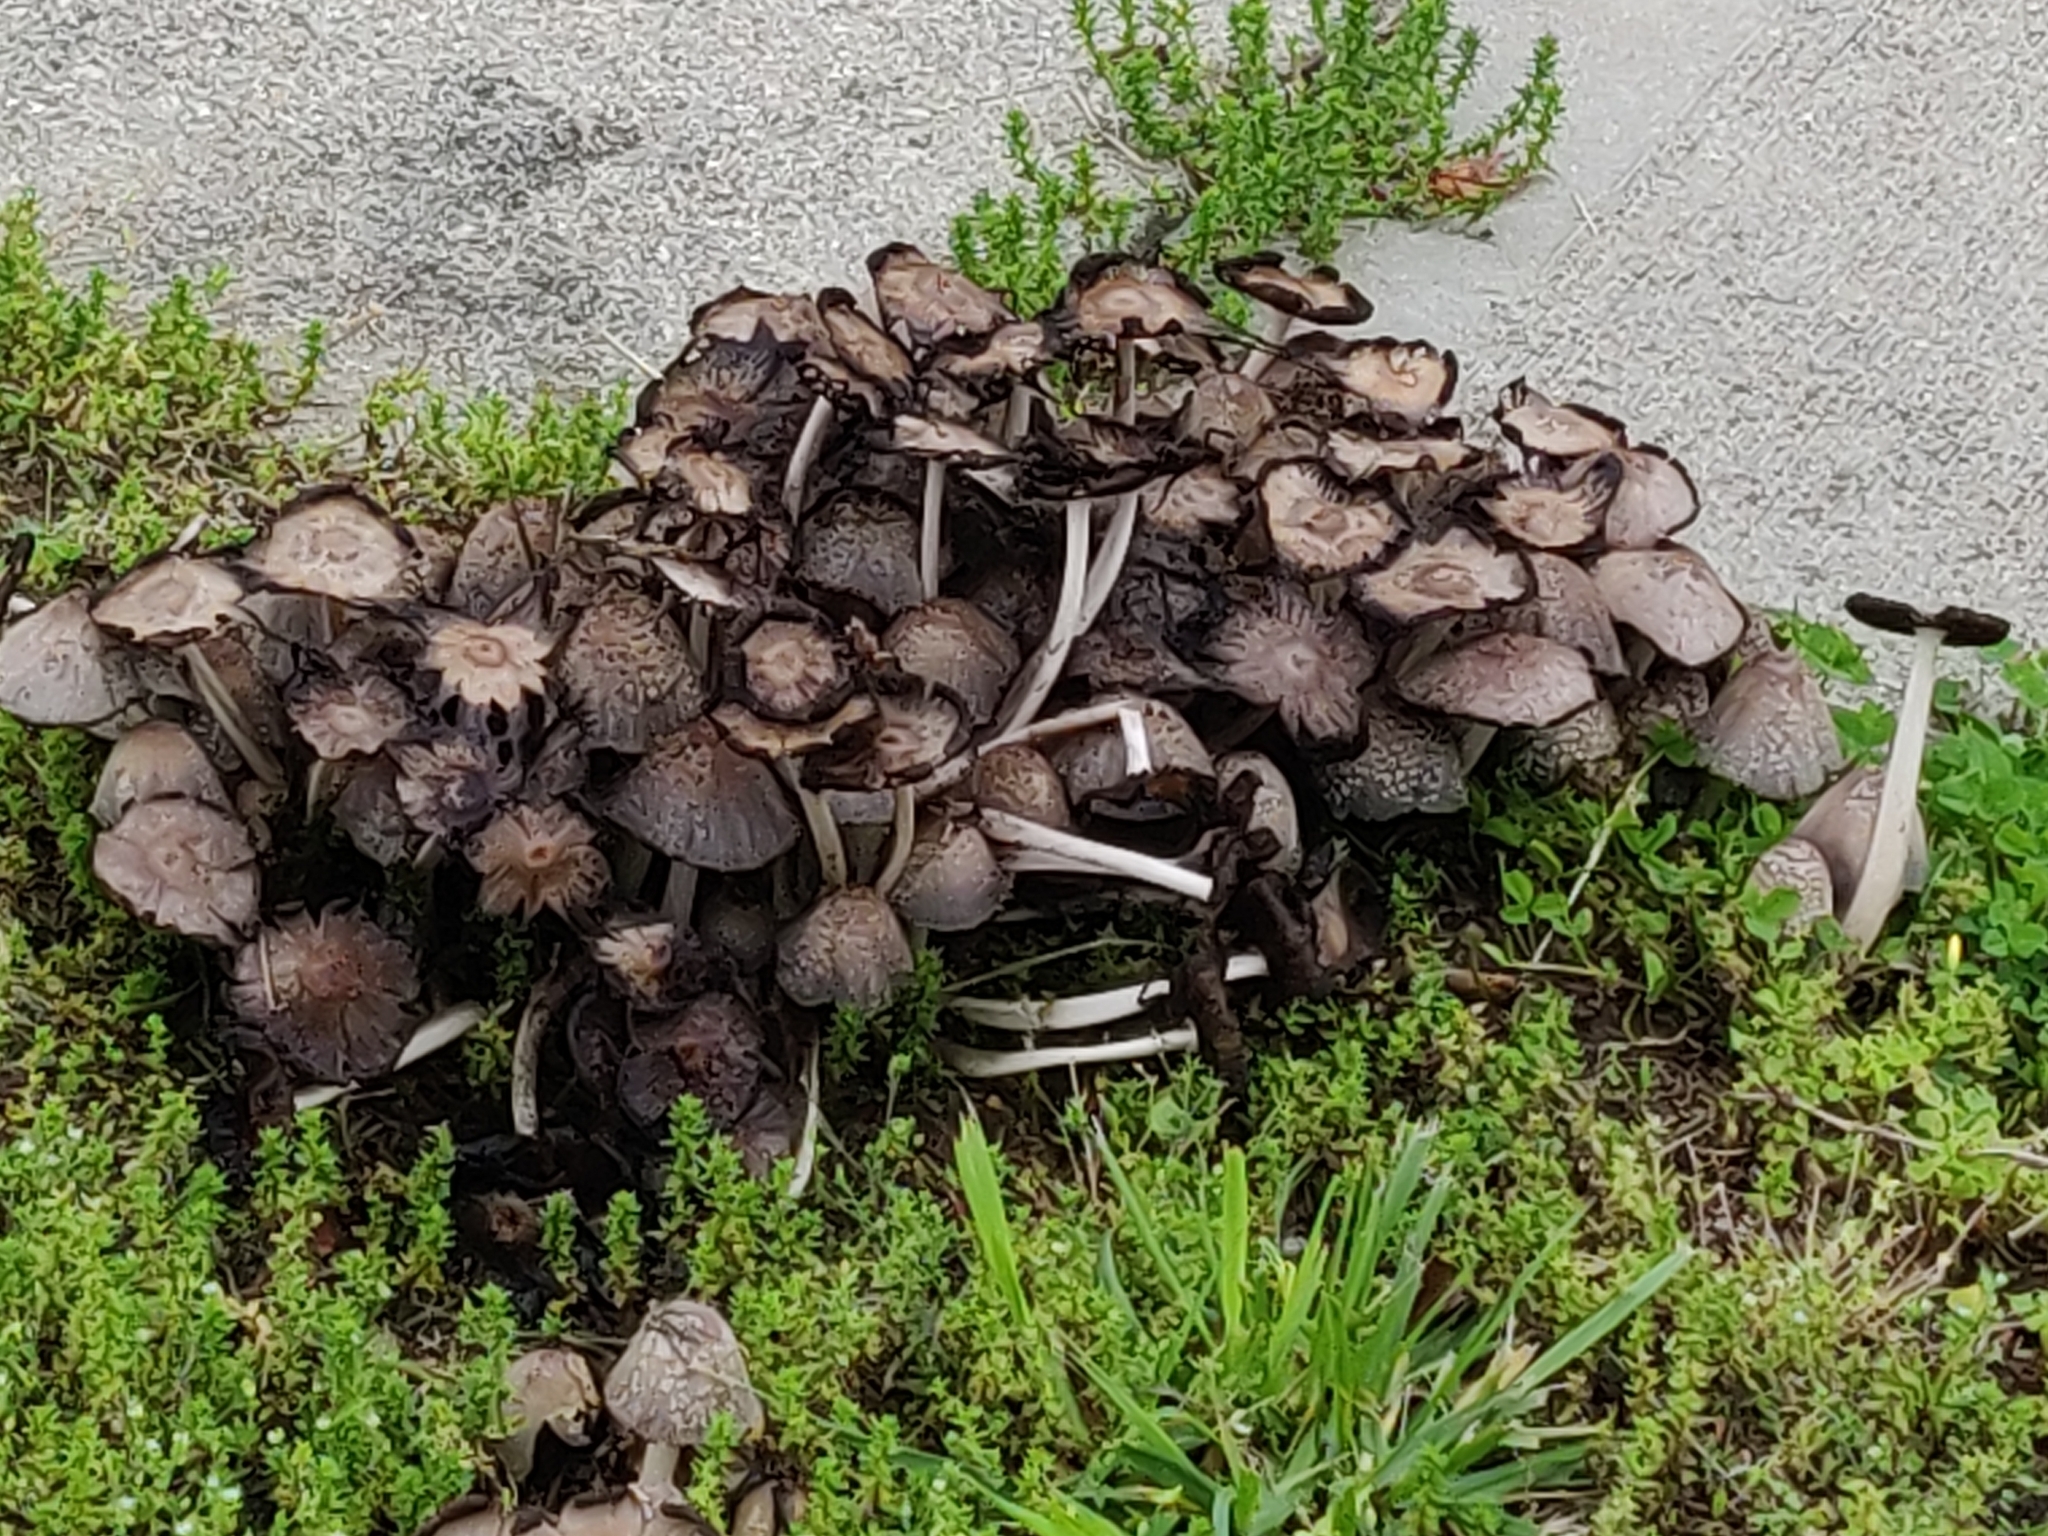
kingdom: Fungi
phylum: Basidiomycota
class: Agaricomycetes
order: Agaricales
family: Psathyrellaceae
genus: Coprinopsis
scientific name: Coprinopsis variegata
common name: Scaly ink cap
